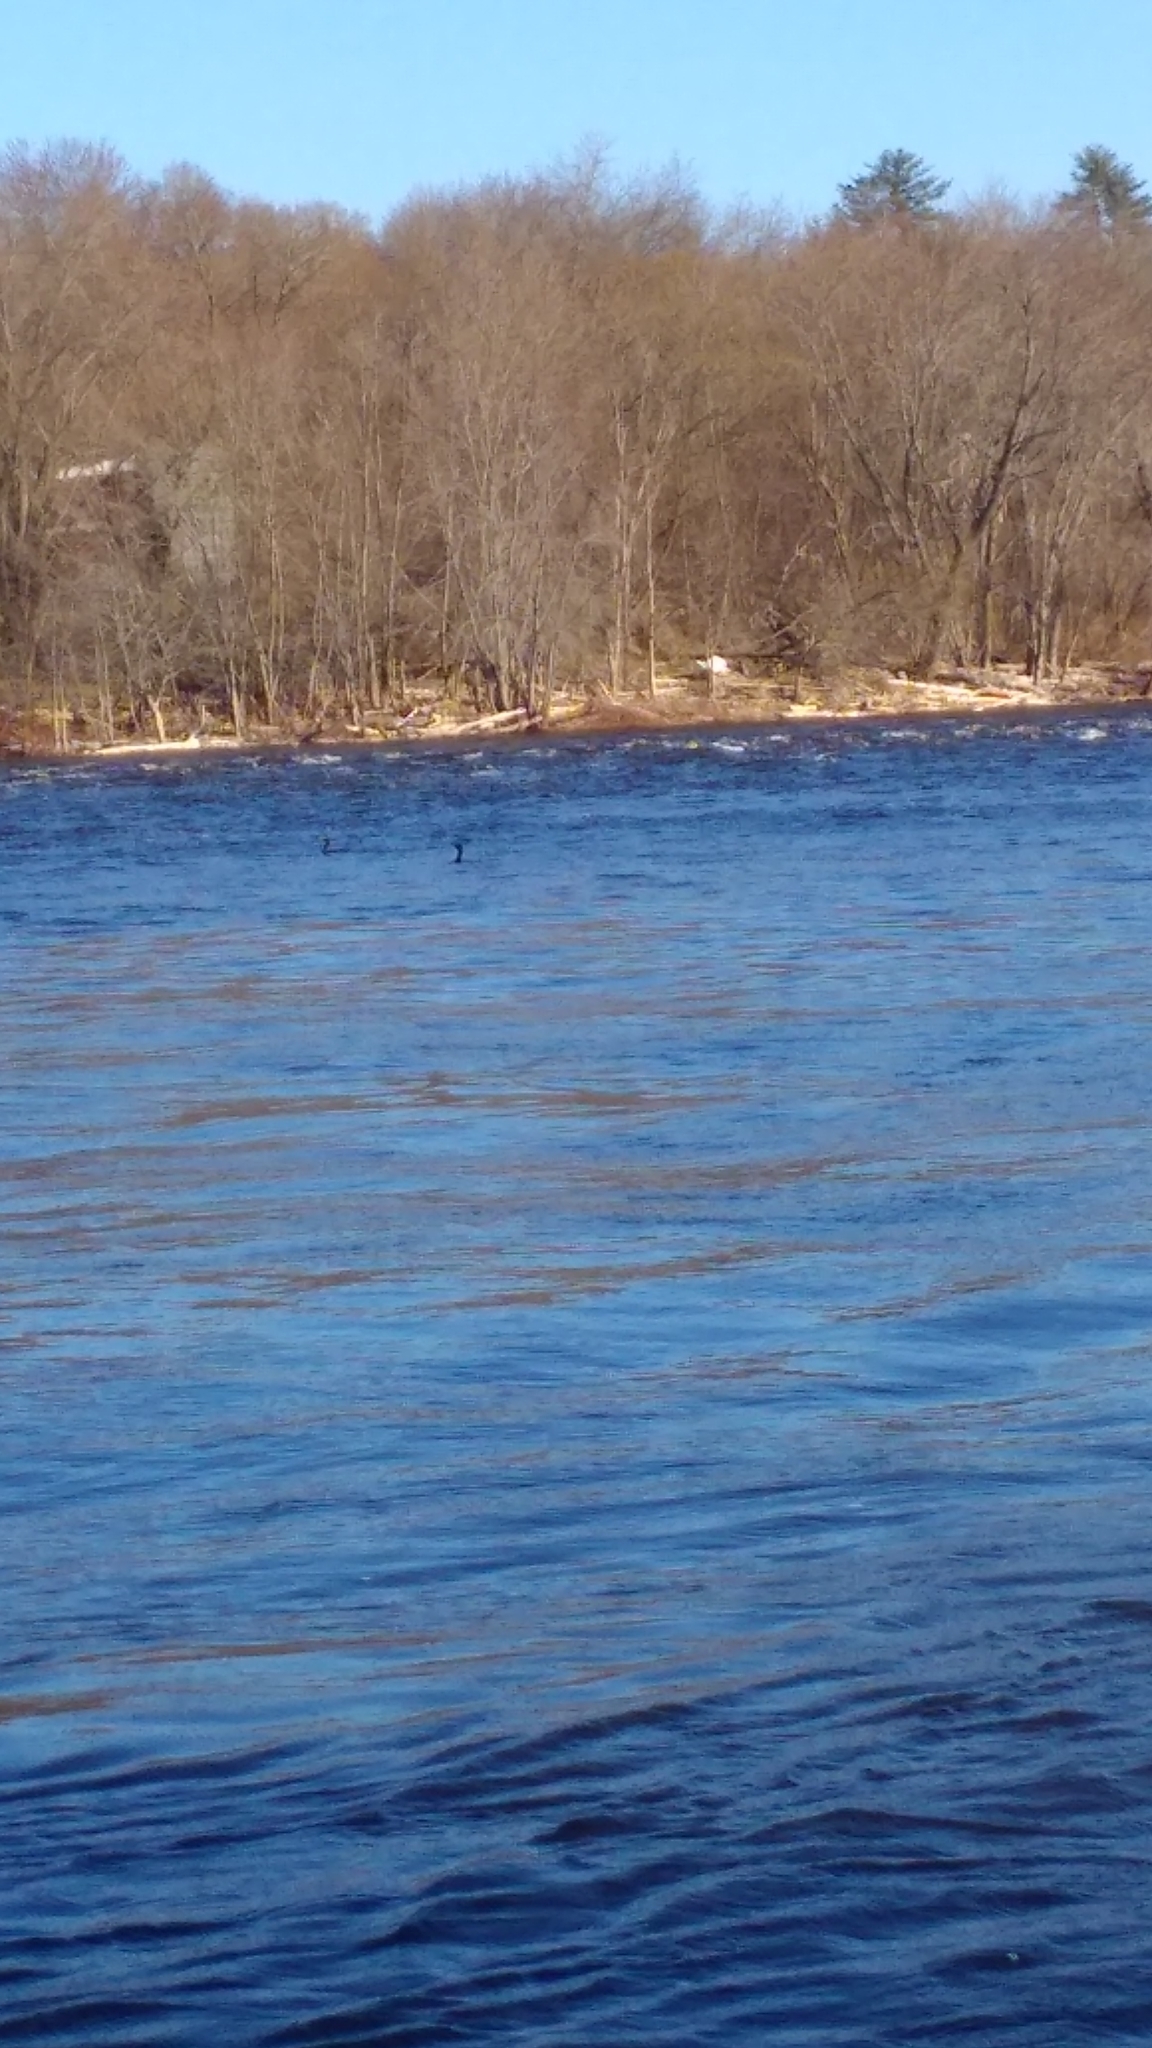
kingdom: Animalia
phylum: Chordata
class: Aves
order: Suliformes
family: Phalacrocoracidae
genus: Phalacrocorax
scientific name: Phalacrocorax auritus
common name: Double-crested cormorant
